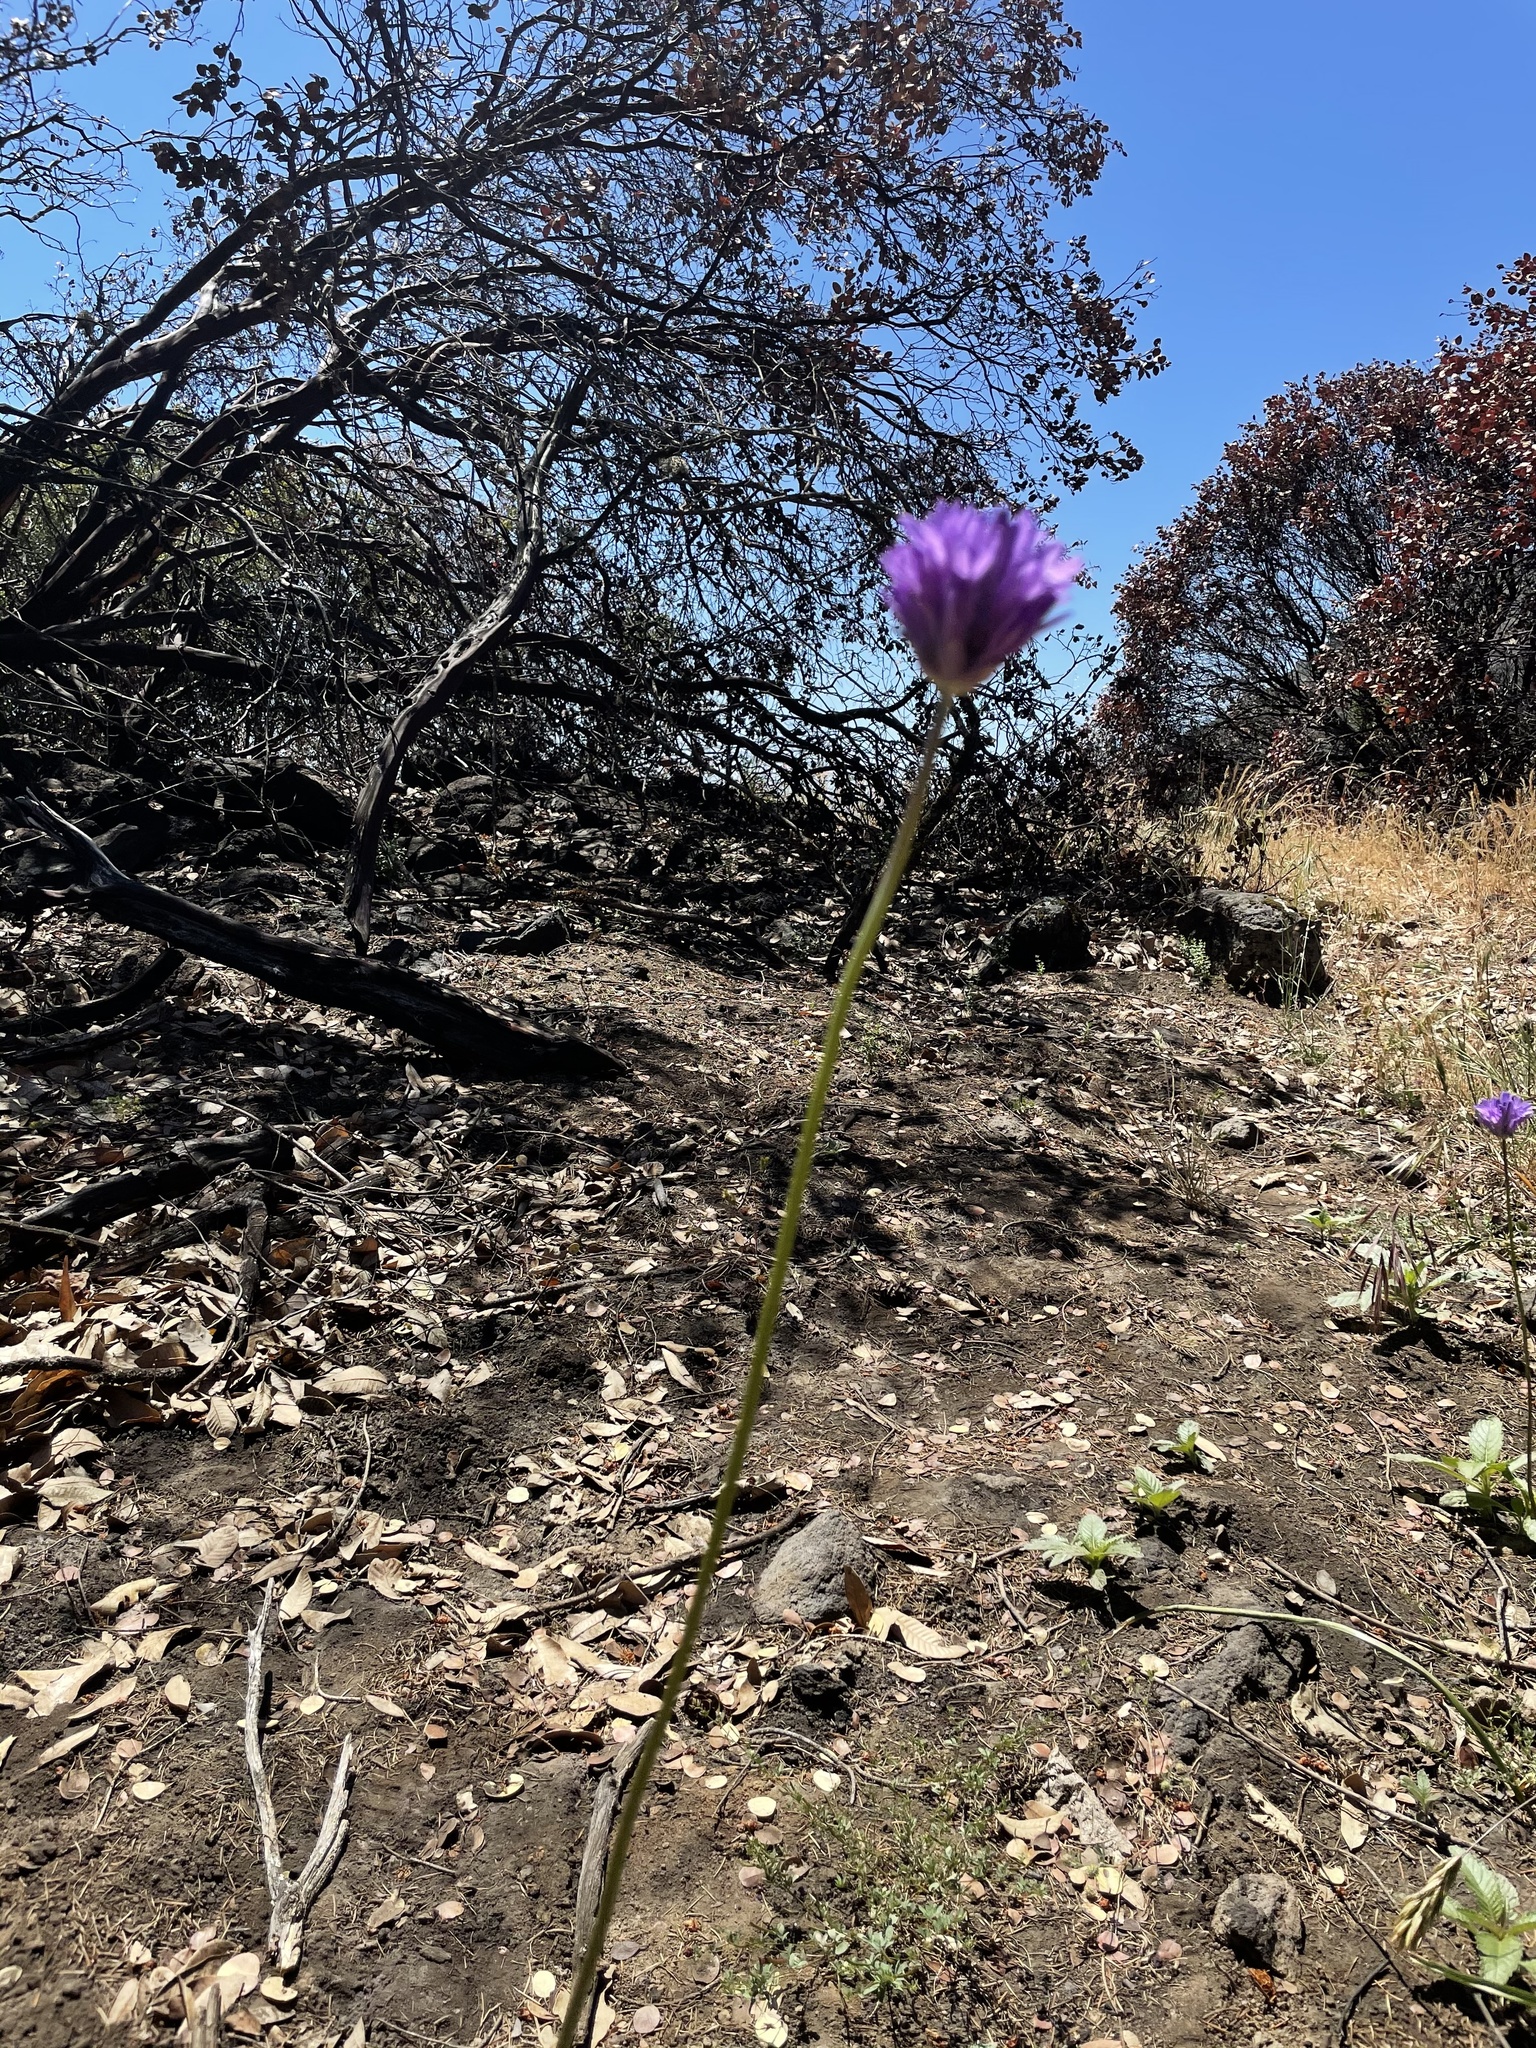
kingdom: Plantae
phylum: Tracheophyta
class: Liliopsida
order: Asparagales
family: Asparagaceae
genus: Dichelostemma
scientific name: Dichelostemma congestum
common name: Fork-tooth ookow
